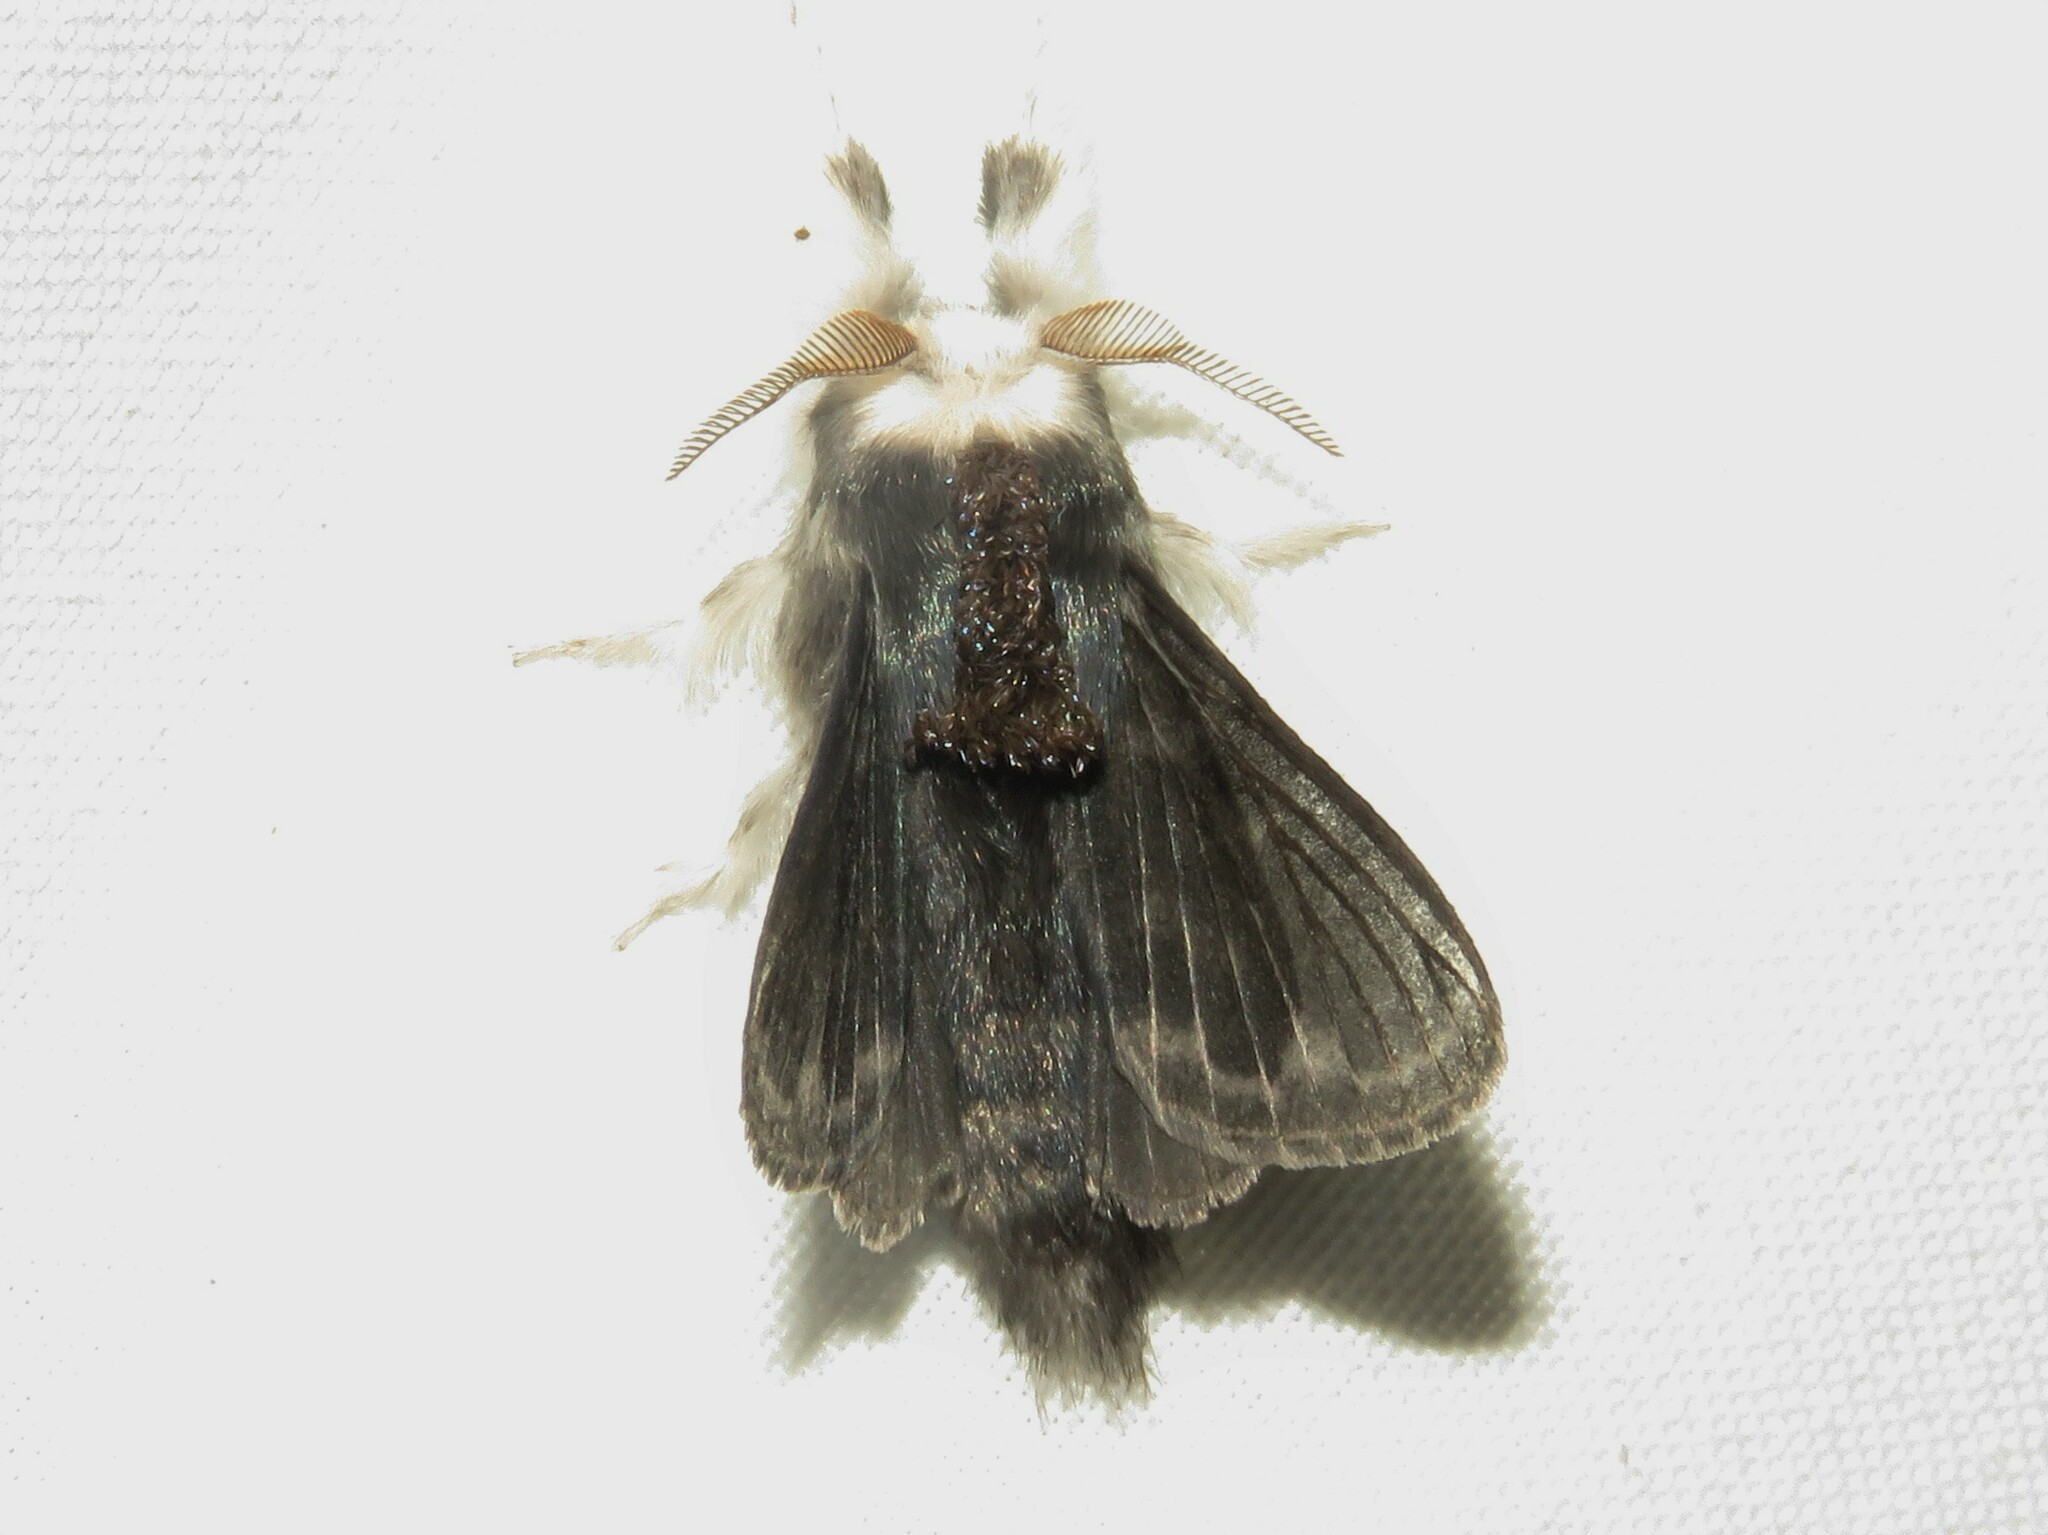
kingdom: Animalia
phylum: Arthropoda
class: Insecta
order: Lepidoptera
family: Lasiocampidae
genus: Tolype
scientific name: Tolype laricis
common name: Larch tolype moth
